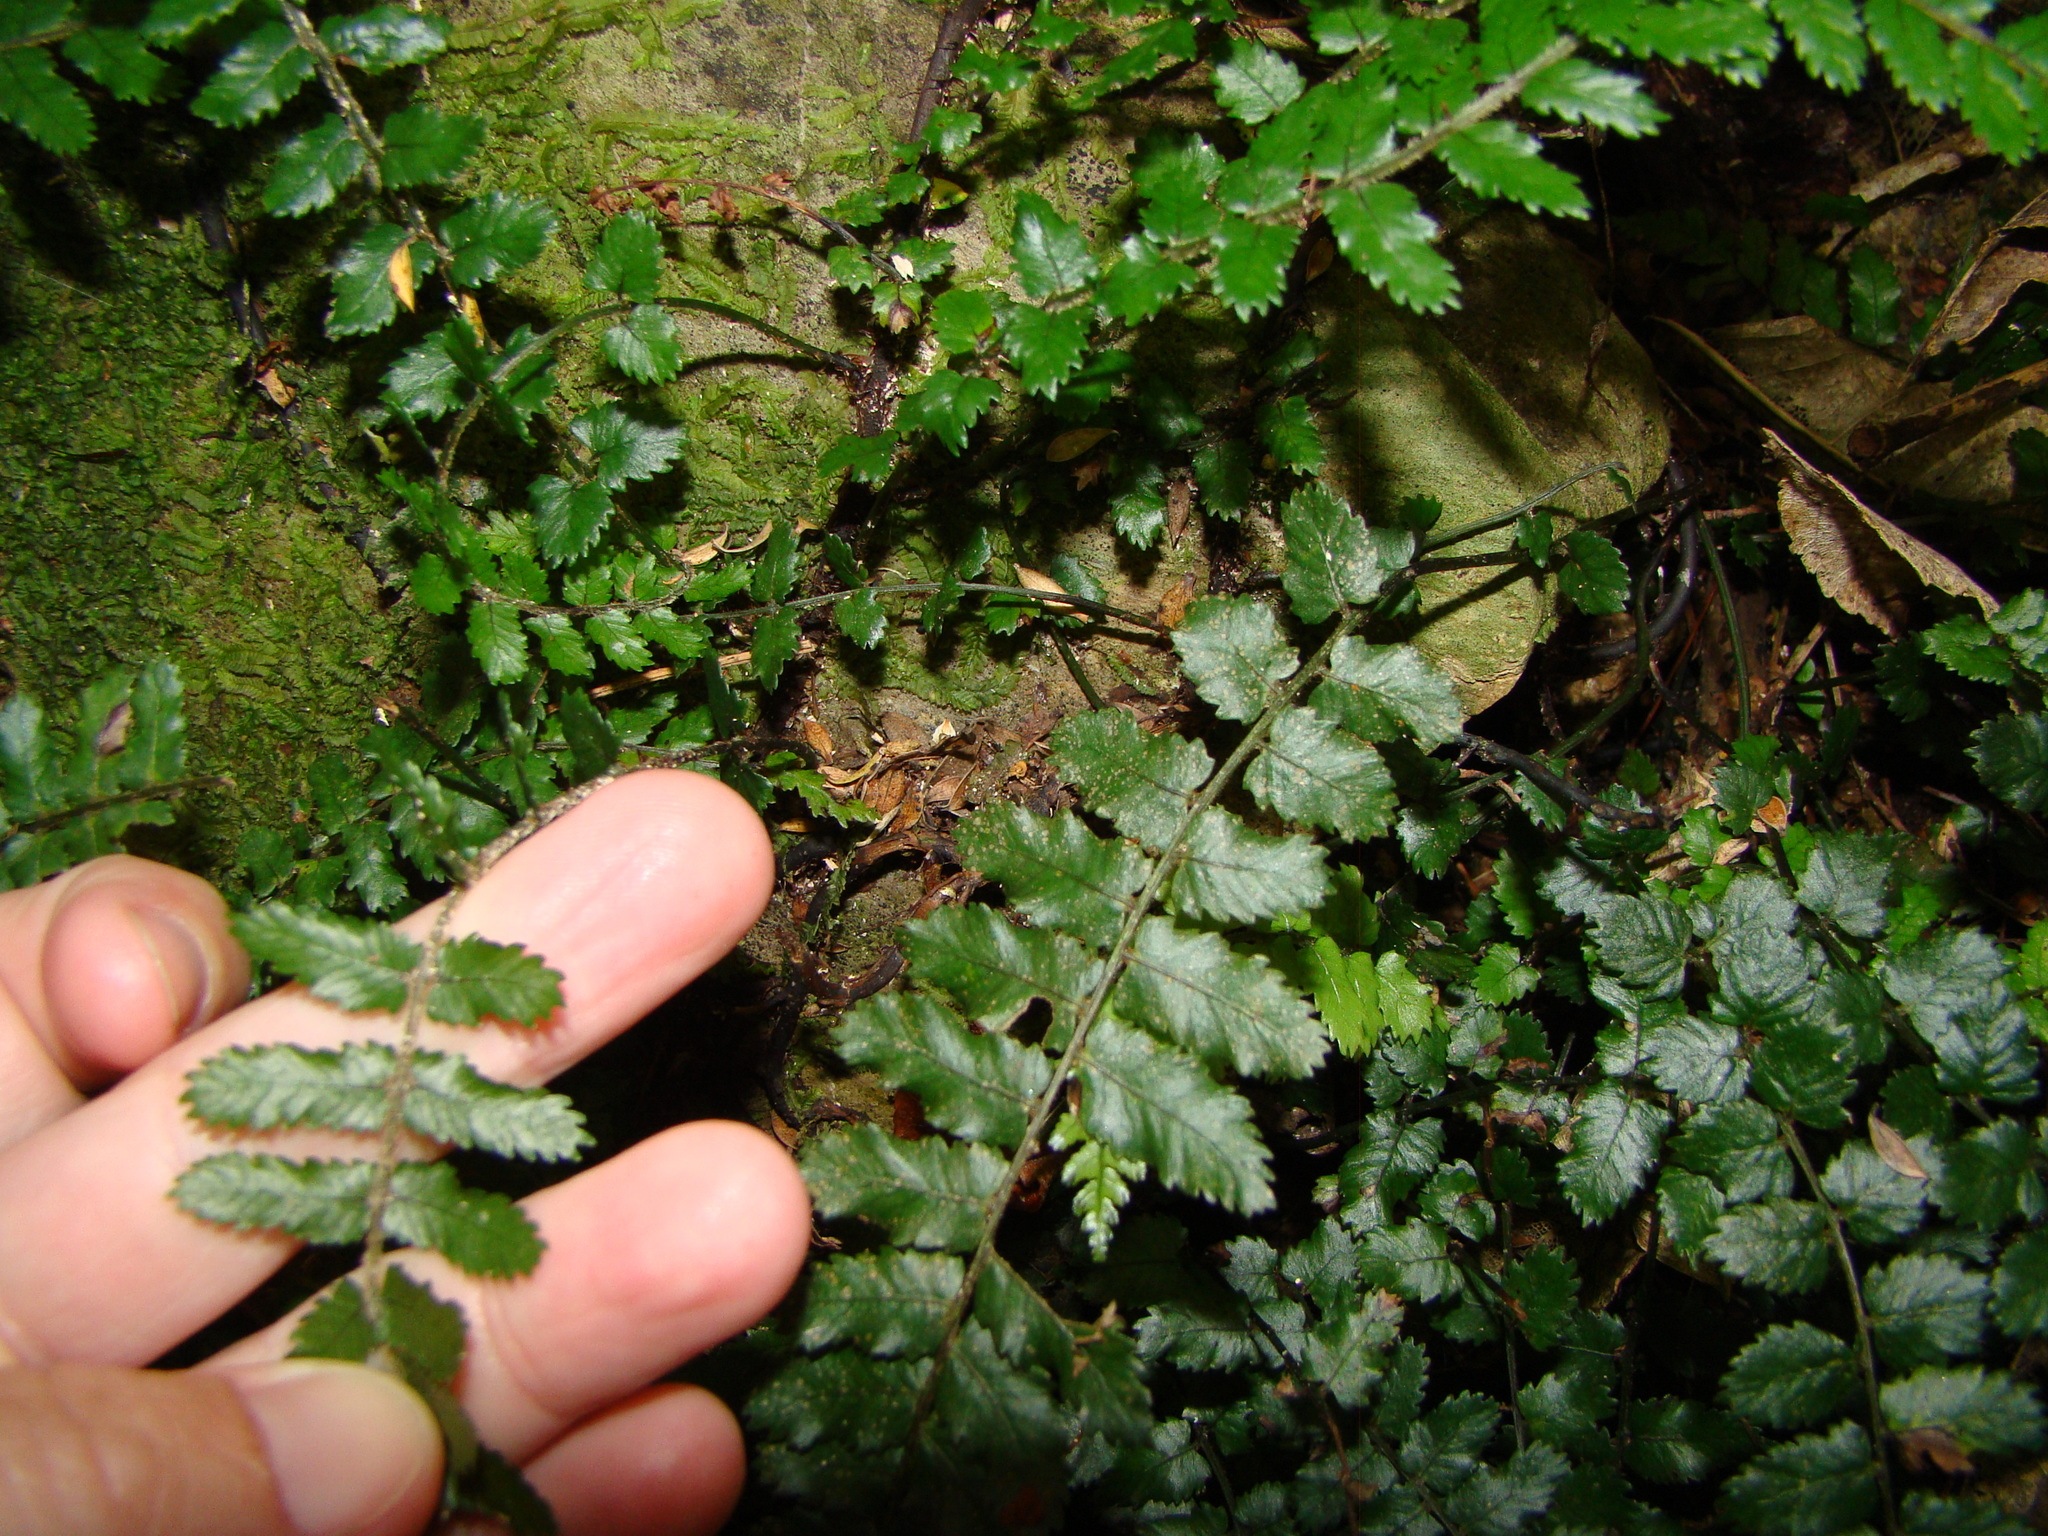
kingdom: Plantae
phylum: Tracheophyta
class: Polypodiopsida
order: Polypodiales
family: Blechnaceae
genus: Icarus
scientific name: Icarus filiformis
